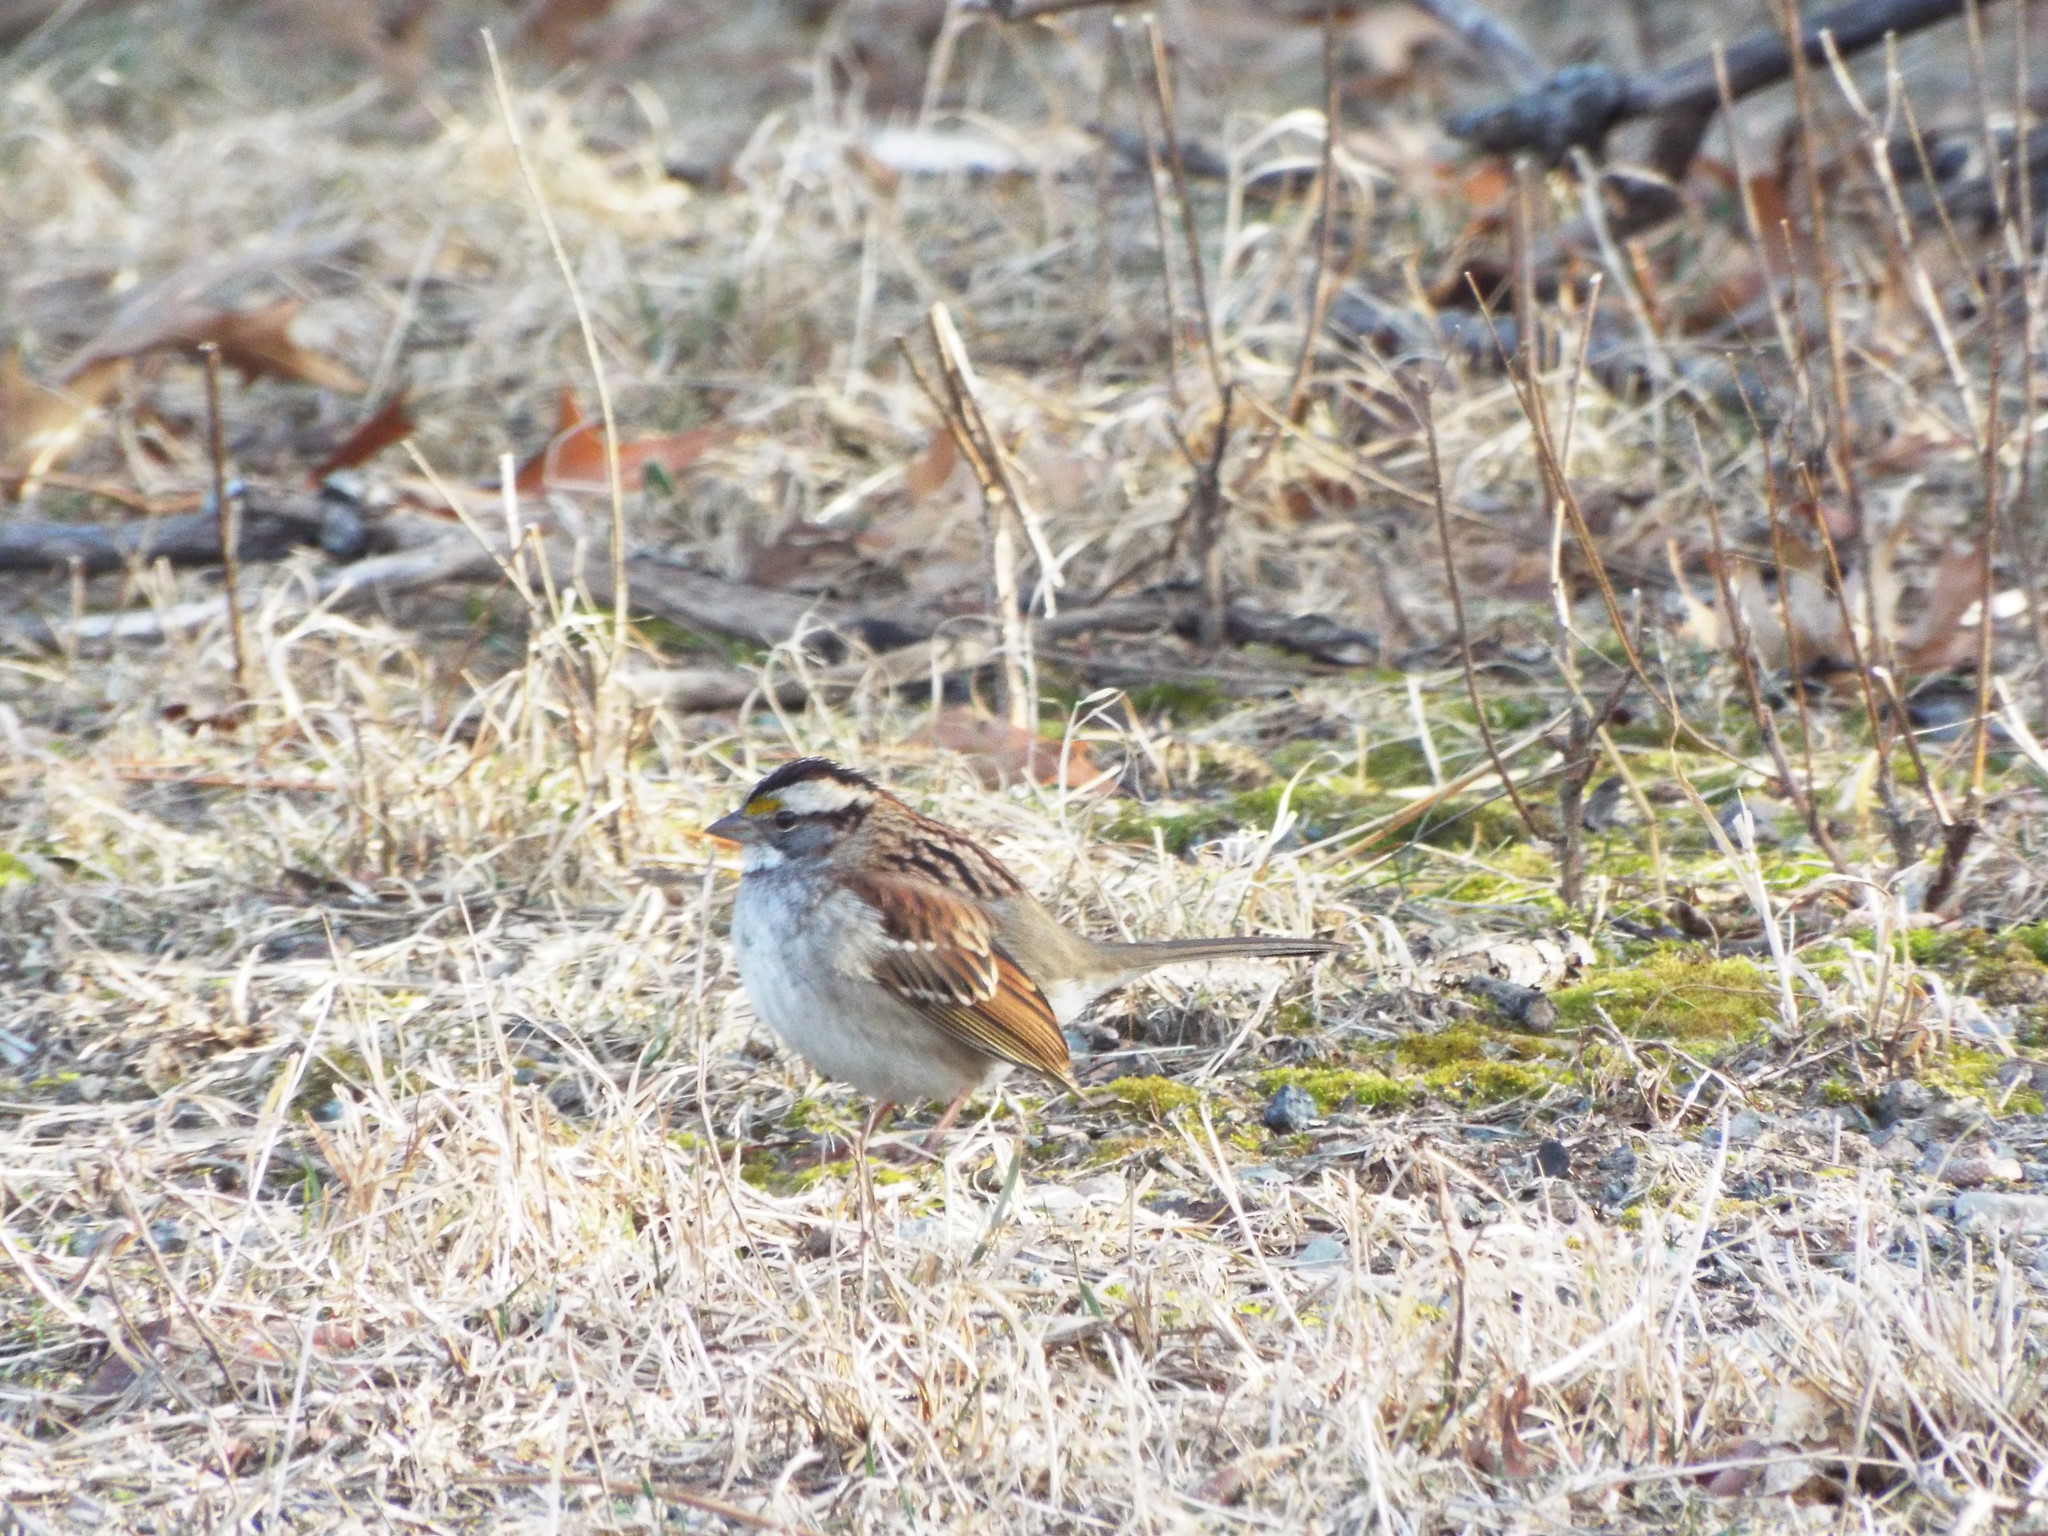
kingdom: Animalia
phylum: Chordata
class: Aves
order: Passeriformes
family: Passerellidae
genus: Zonotrichia
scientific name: Zonotrichia albicollis
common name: White-throated sparrow
